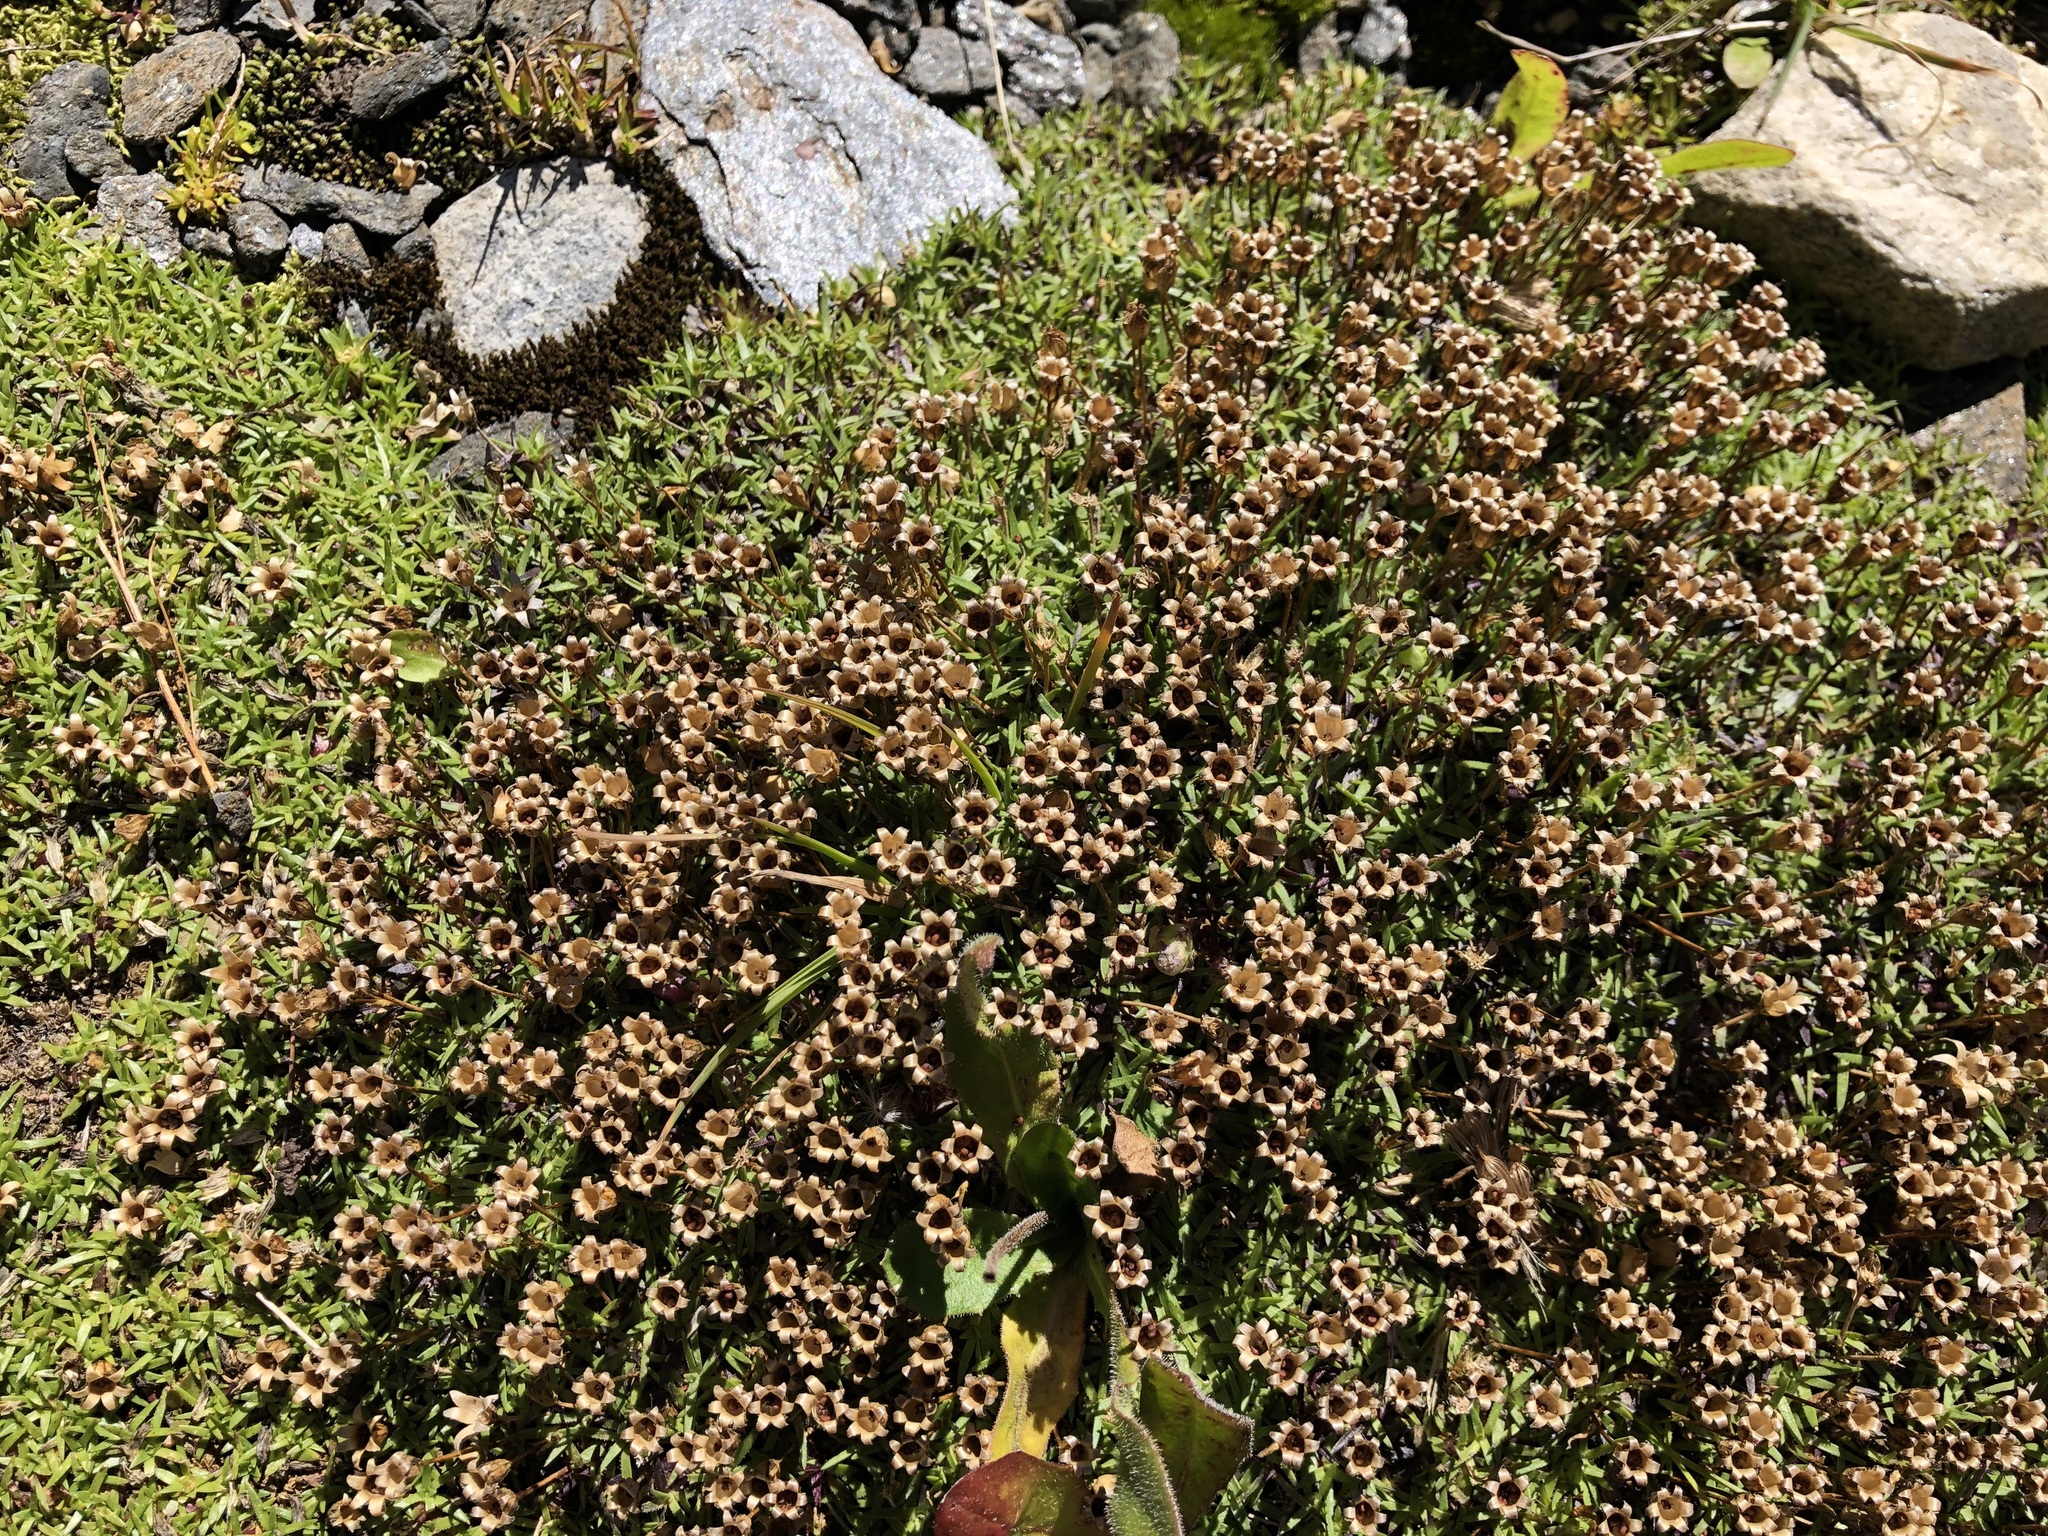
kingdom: Plantae
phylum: Tracheophyta
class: Magnoliopsida
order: Caryophyllales
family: Caryophyllaceae
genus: Silene
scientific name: Silene acaulis
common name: Moss campion
